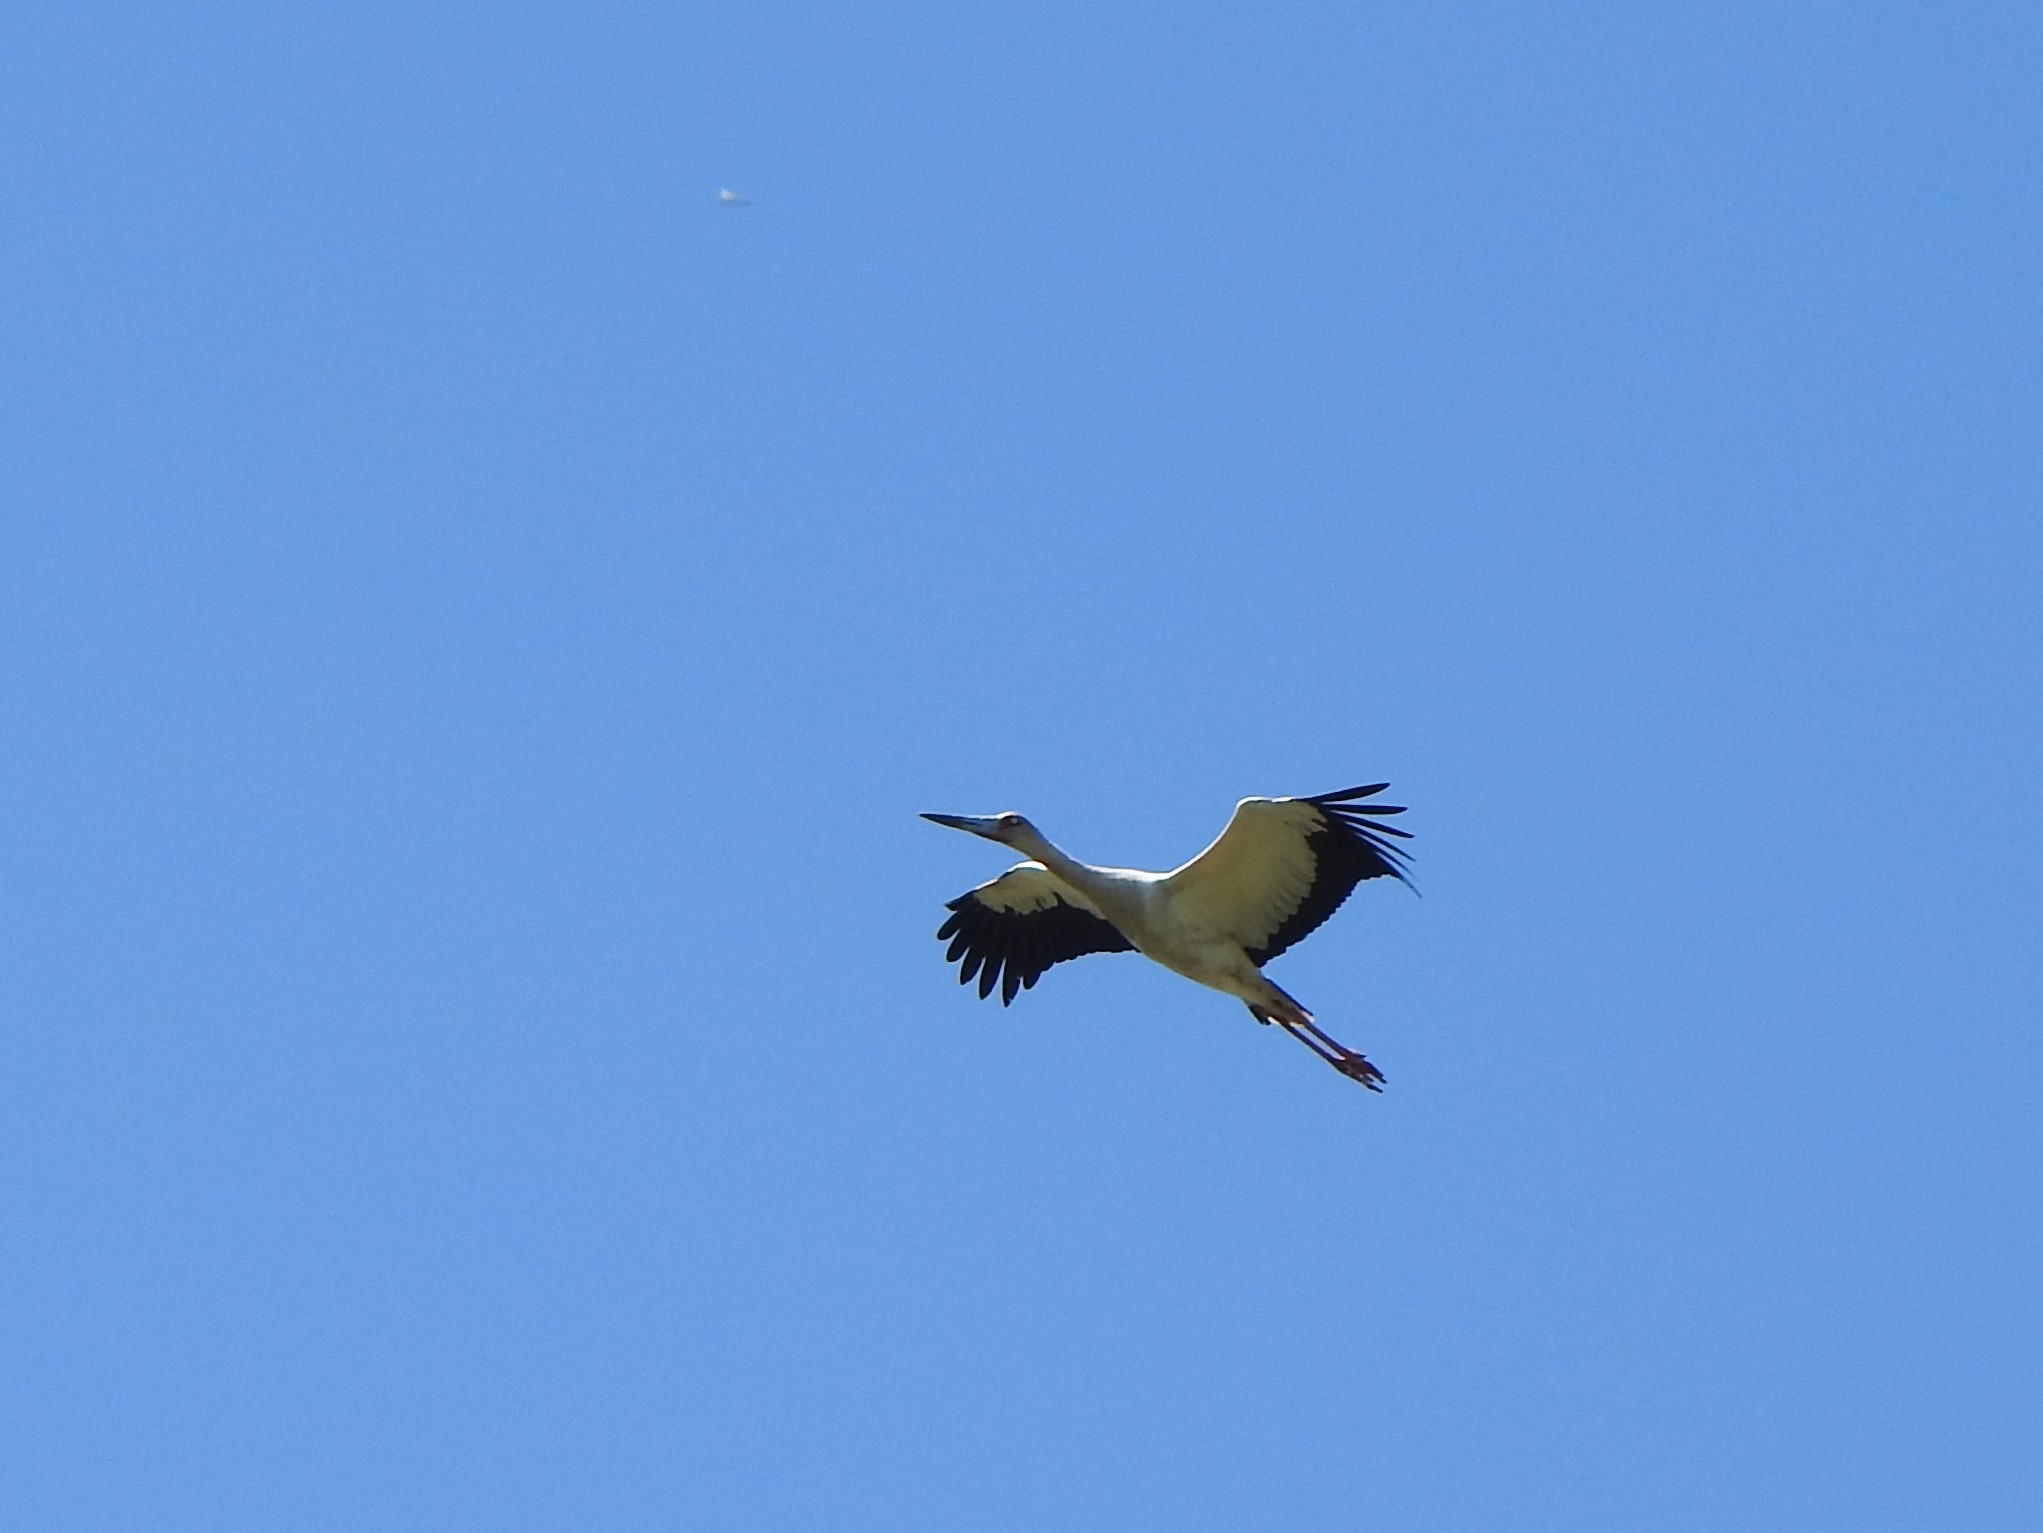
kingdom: Animalia
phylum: Chordata
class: Aves
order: Ciconiiformes
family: Ciconiidae
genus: Ciconia
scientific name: Ciconia maguari
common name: Maguari stork
